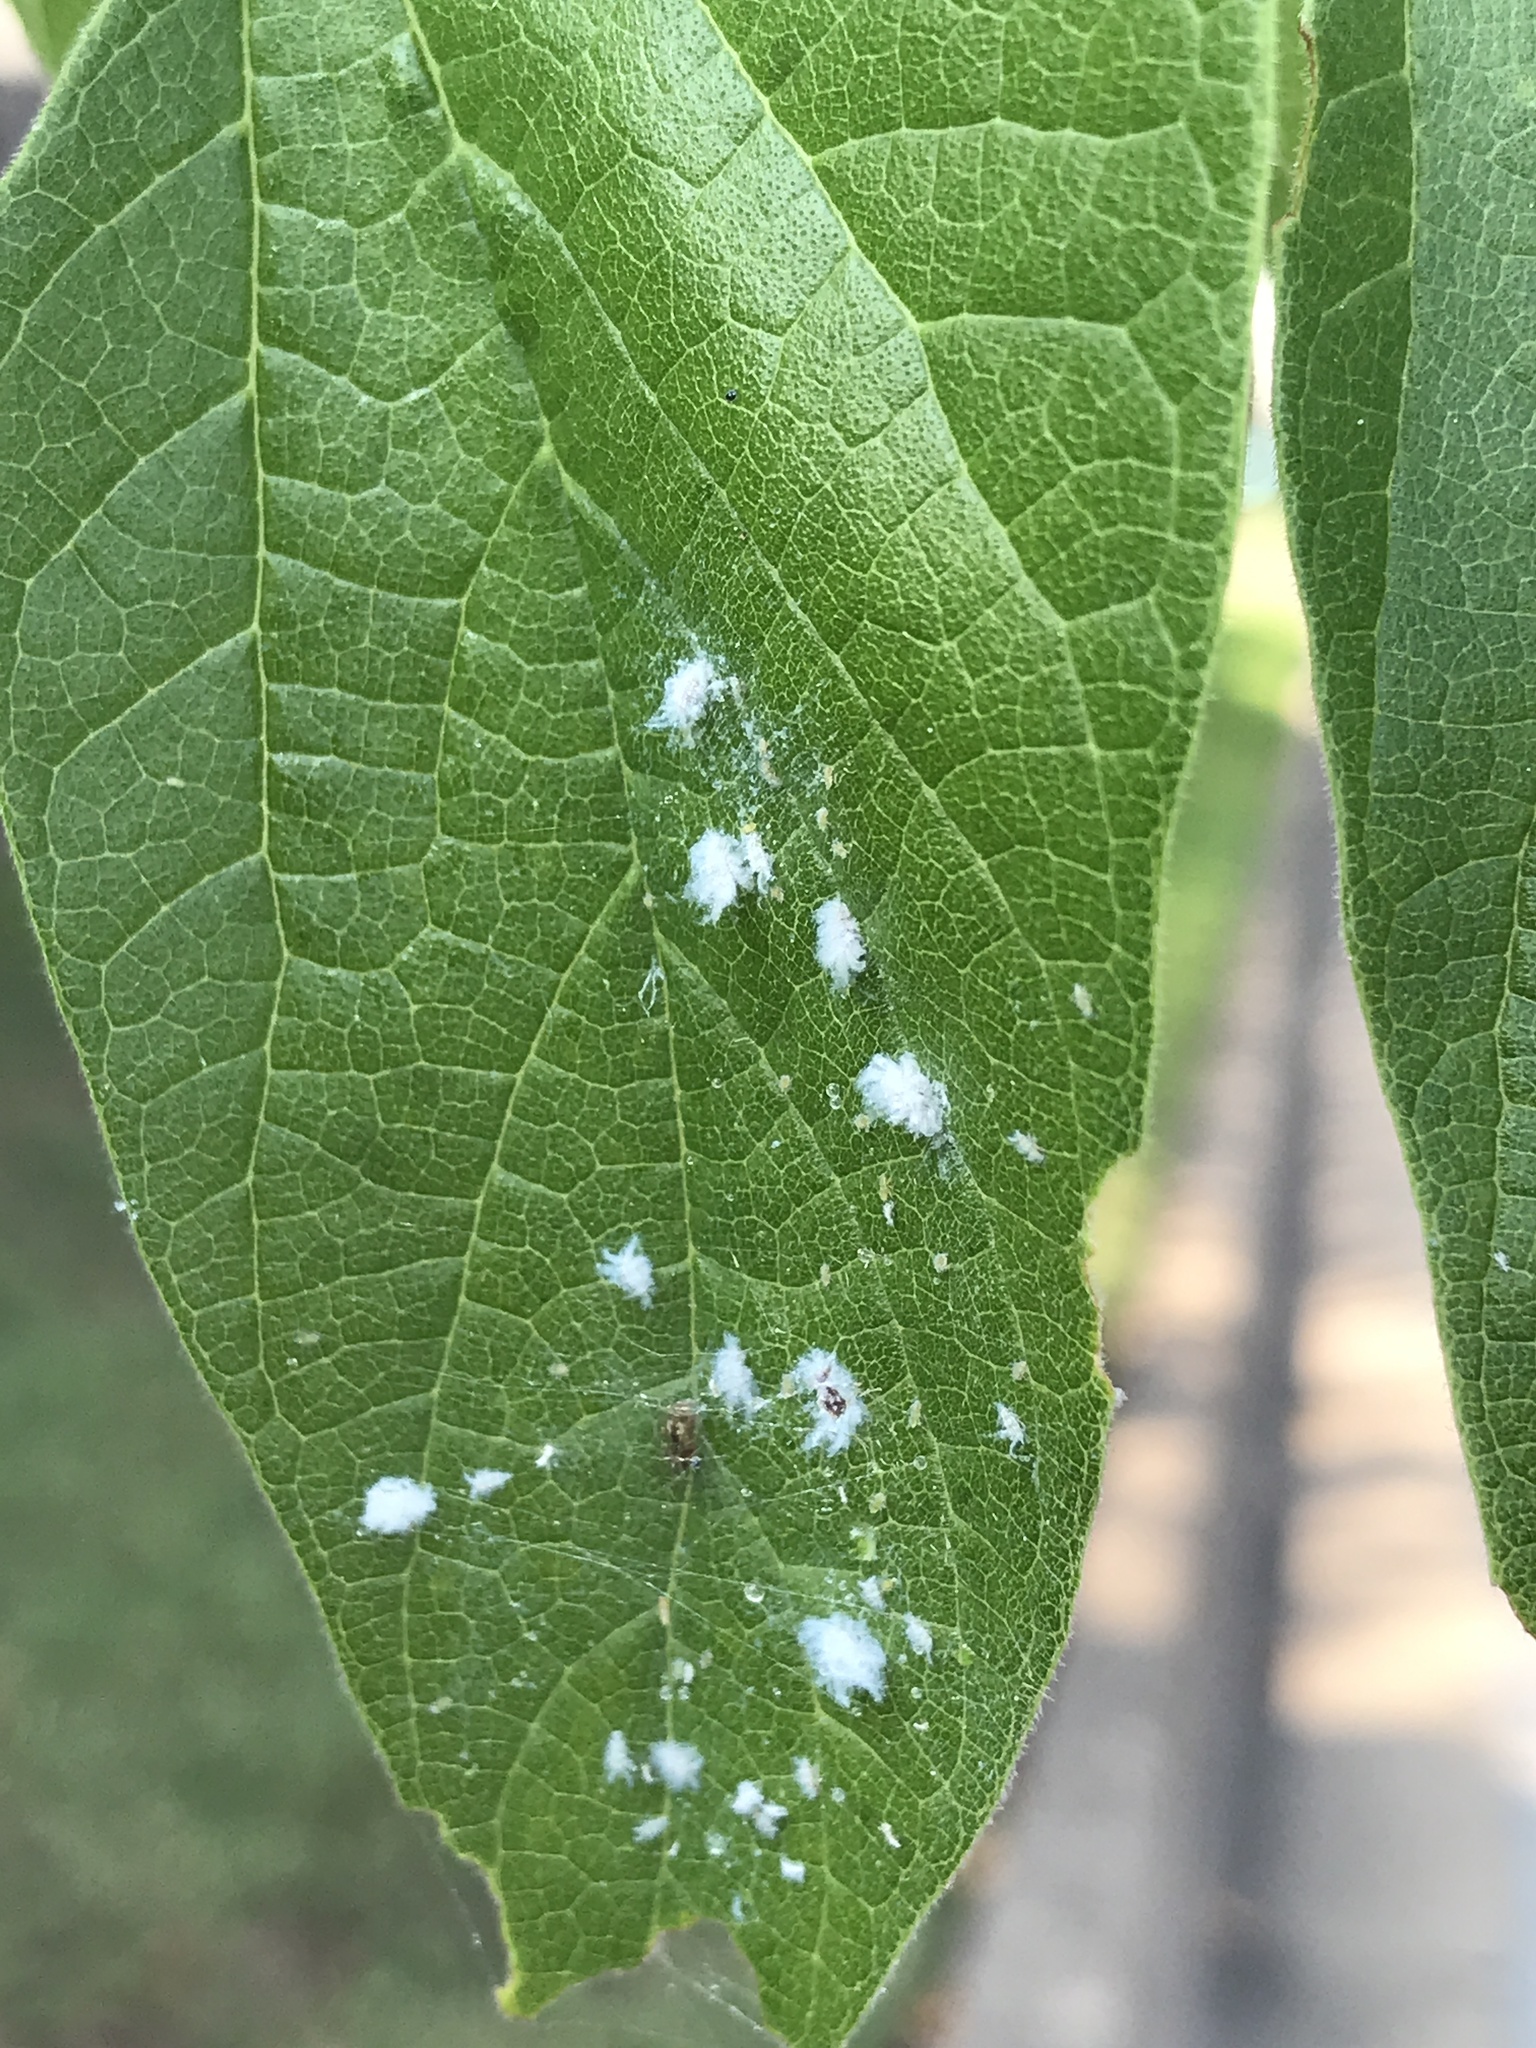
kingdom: Animalia
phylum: Arthropoda
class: Insecta
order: Hemiptera
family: Aphididae
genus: Shivaphis
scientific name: Shivaphis celti
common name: Asian wooly hackberry aphid
